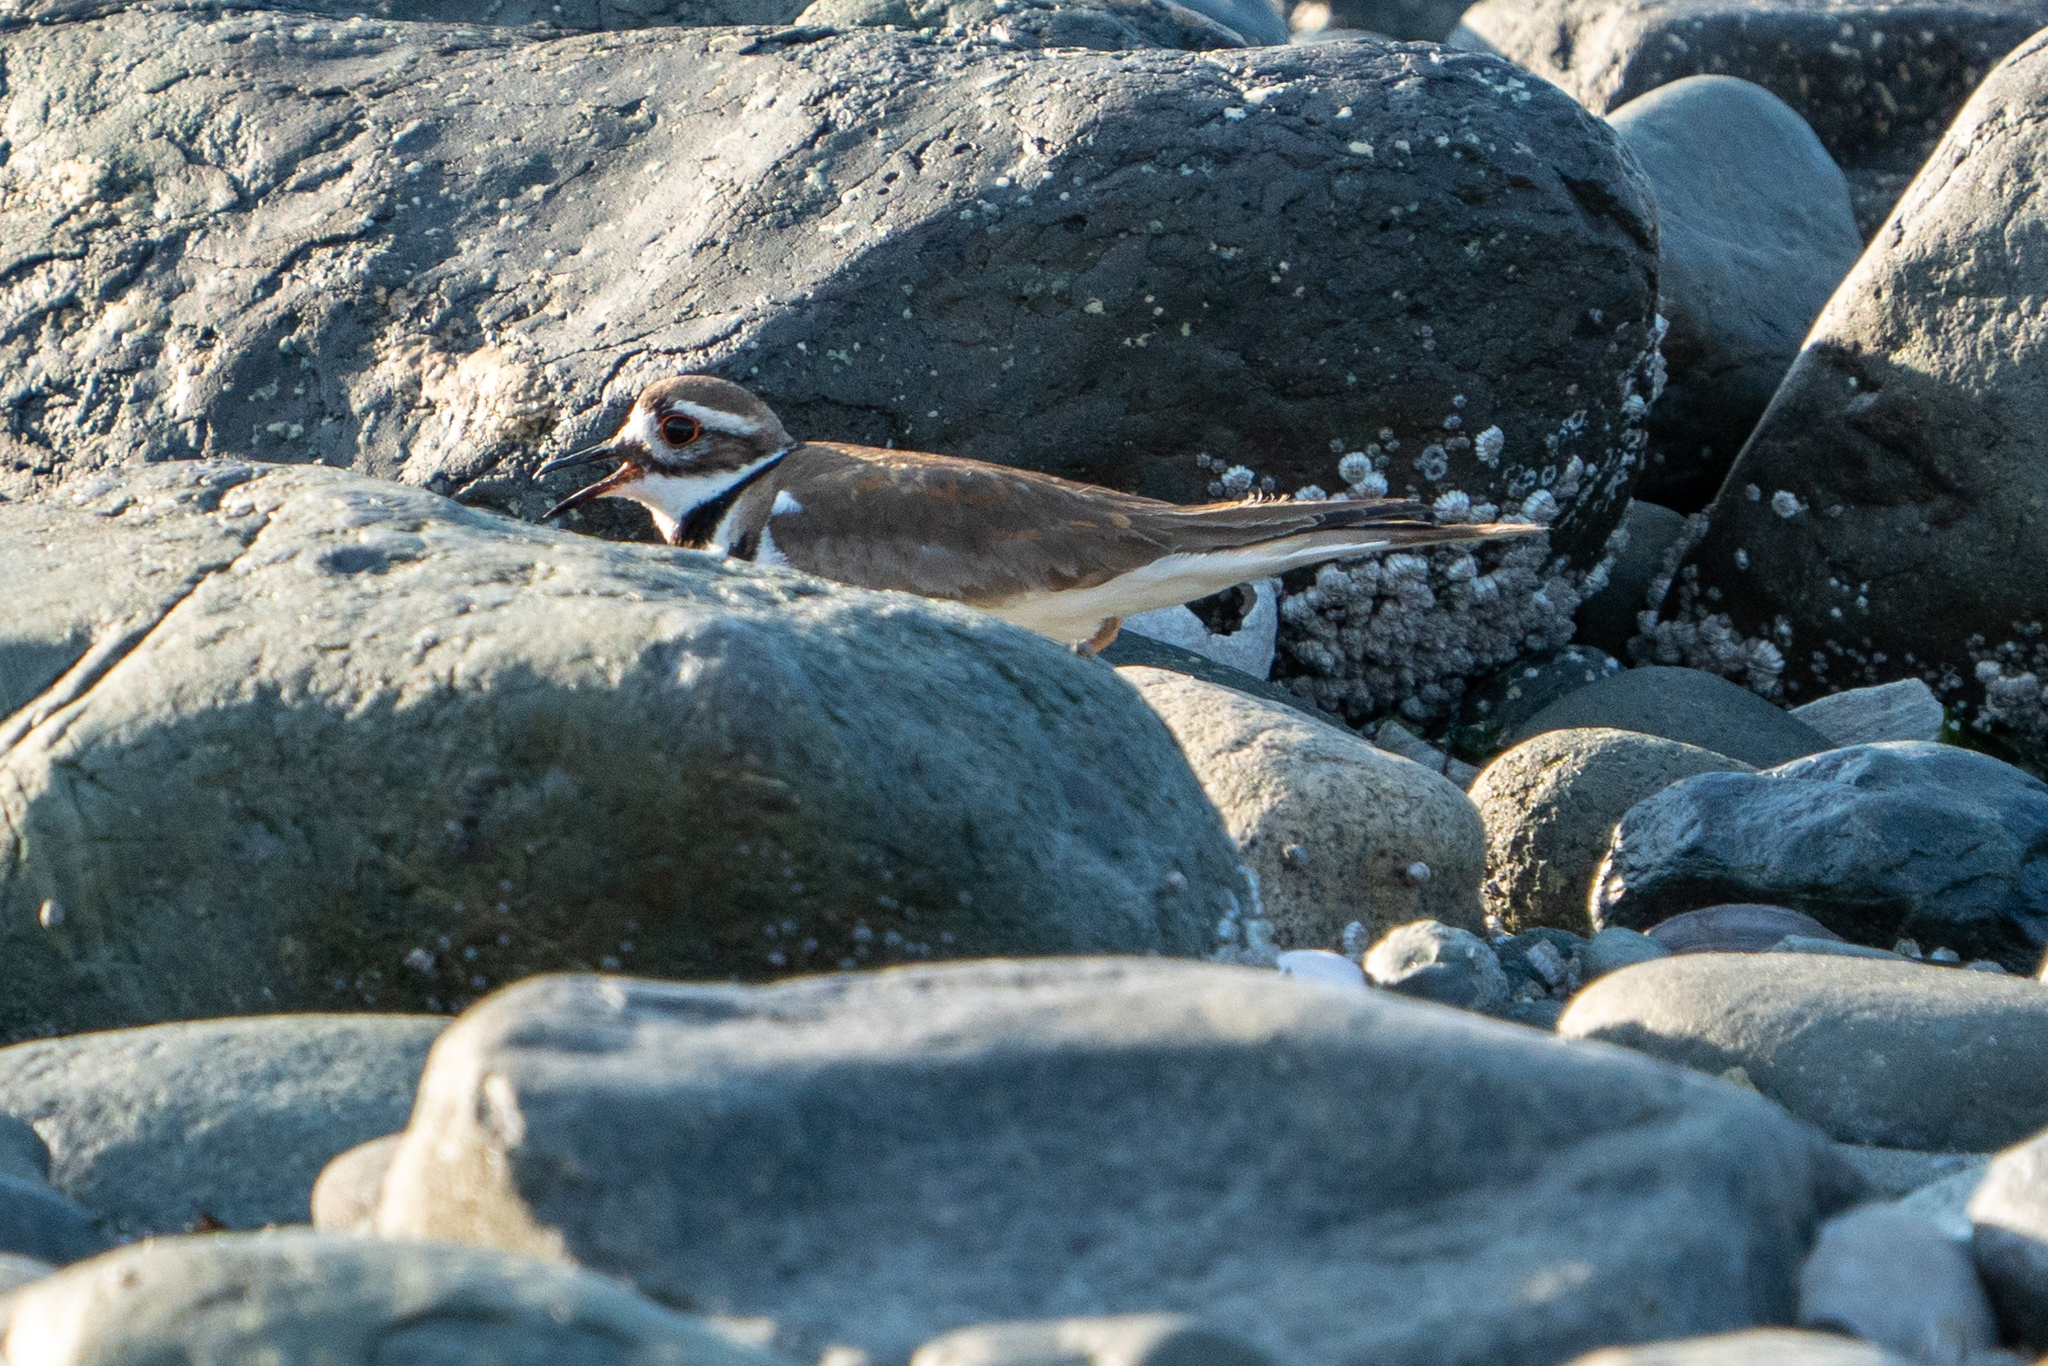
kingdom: Animalia
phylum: Chordata
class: Aves
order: Charadriiformes
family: Charadriidae
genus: Charadrius
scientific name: Charadrius vociferus
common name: Killdeer
